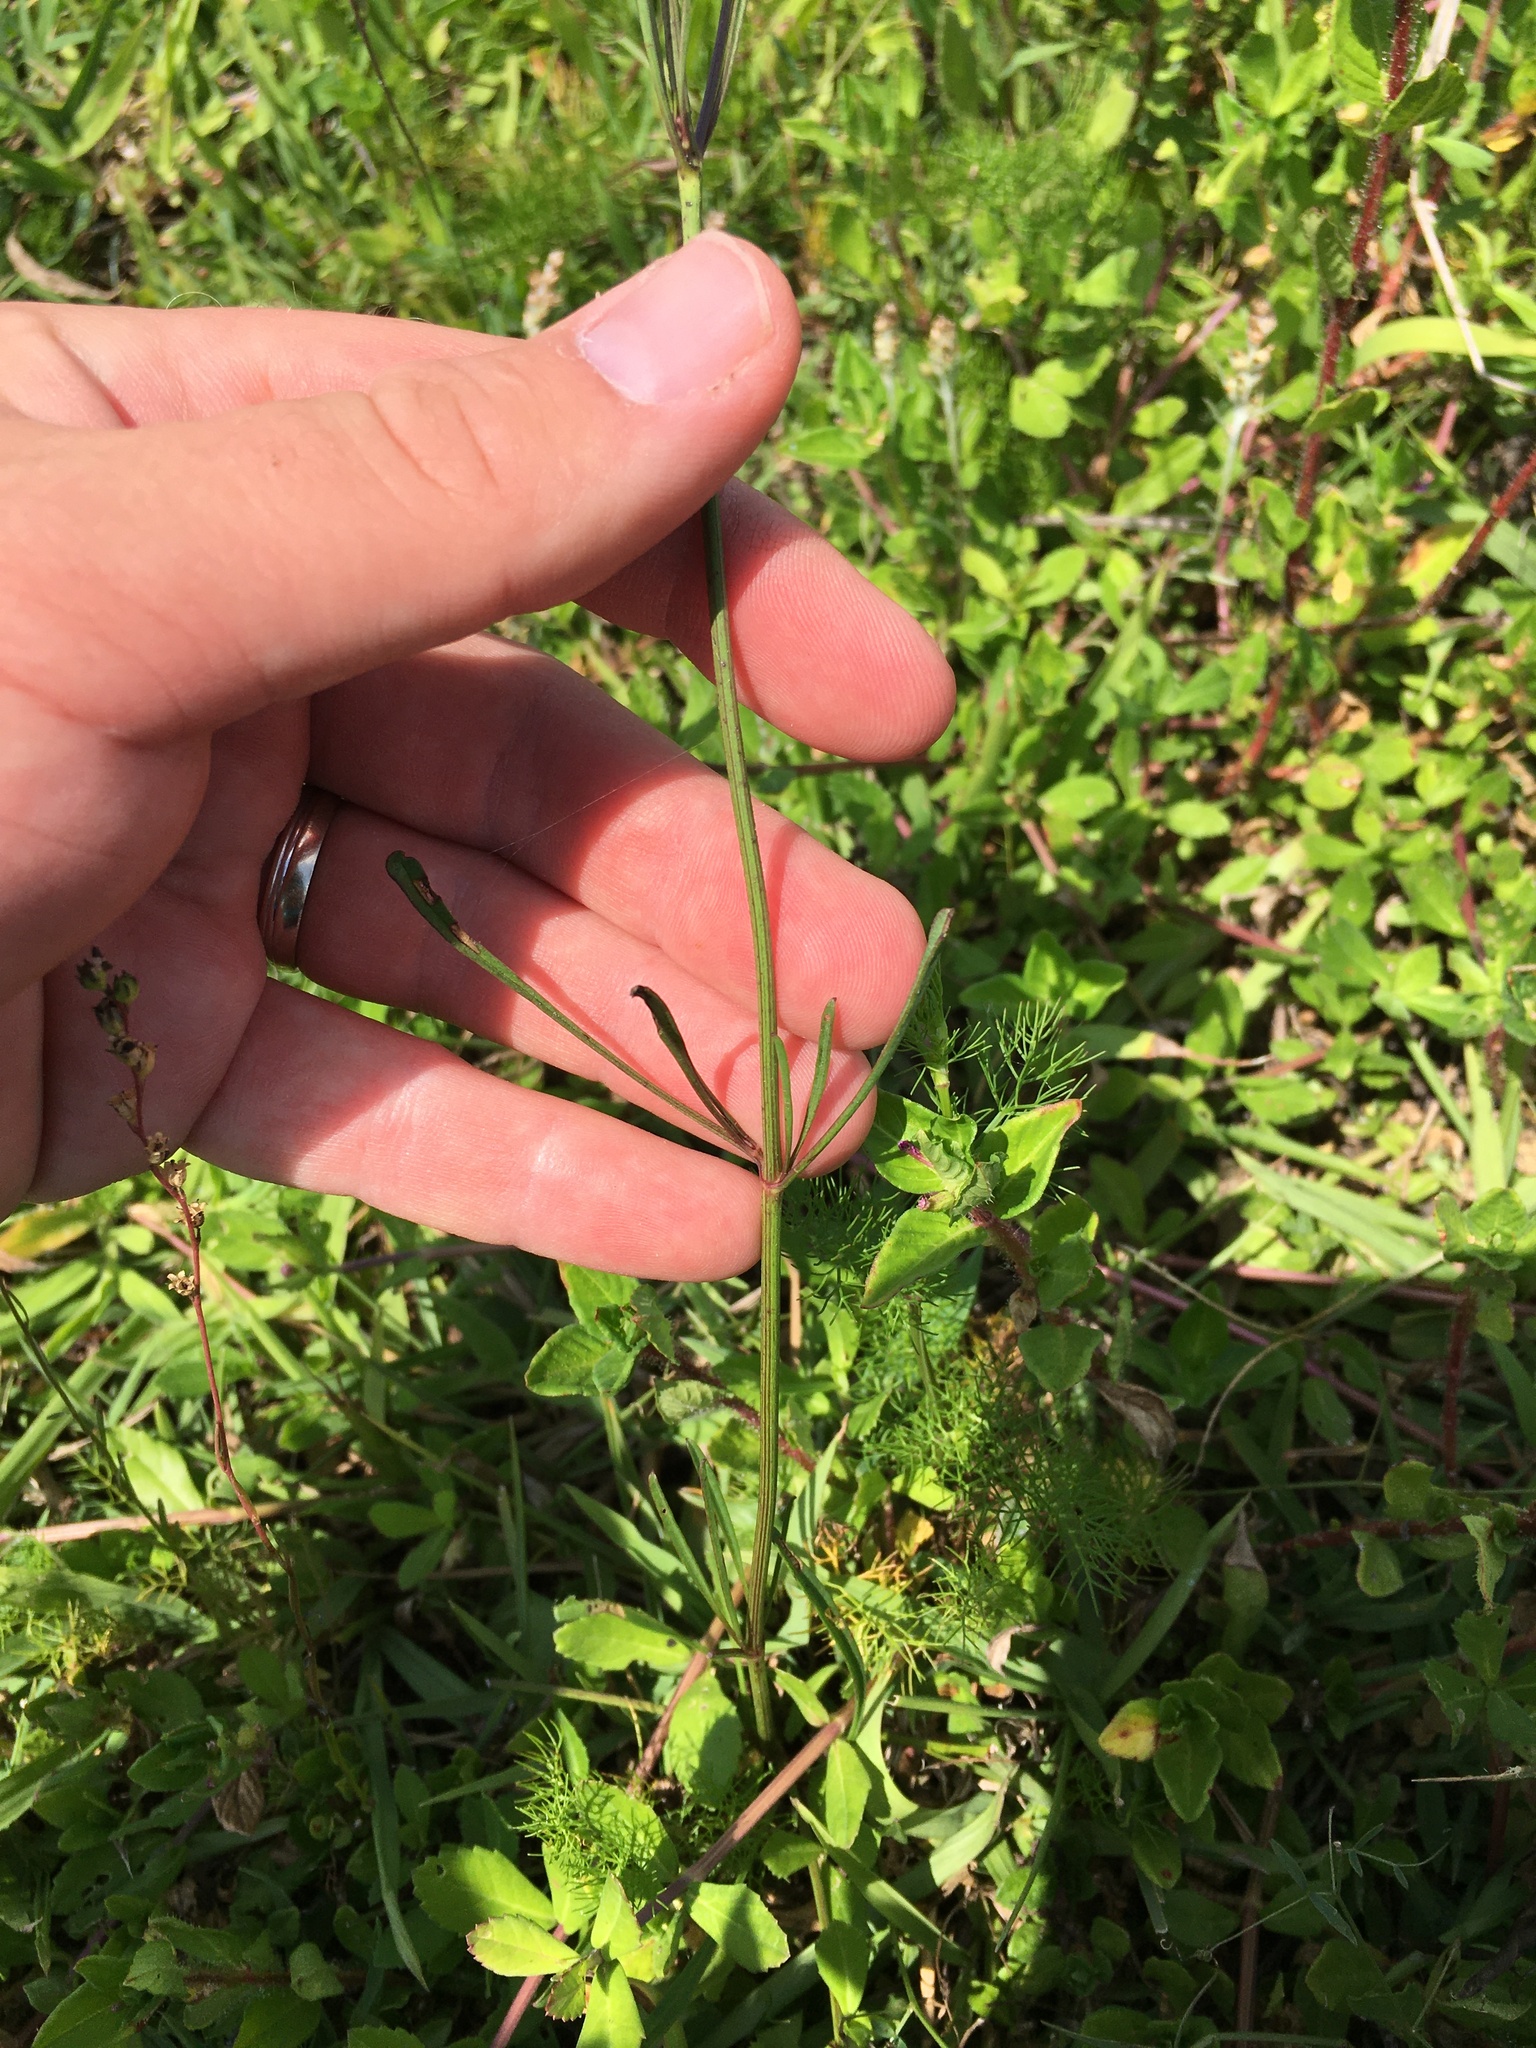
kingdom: Plantae
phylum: Tracheophyta
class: Magnoliopsida
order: Asterales
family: Asteraceae
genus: Coreopsis
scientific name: Coreopsis leavenworthii
